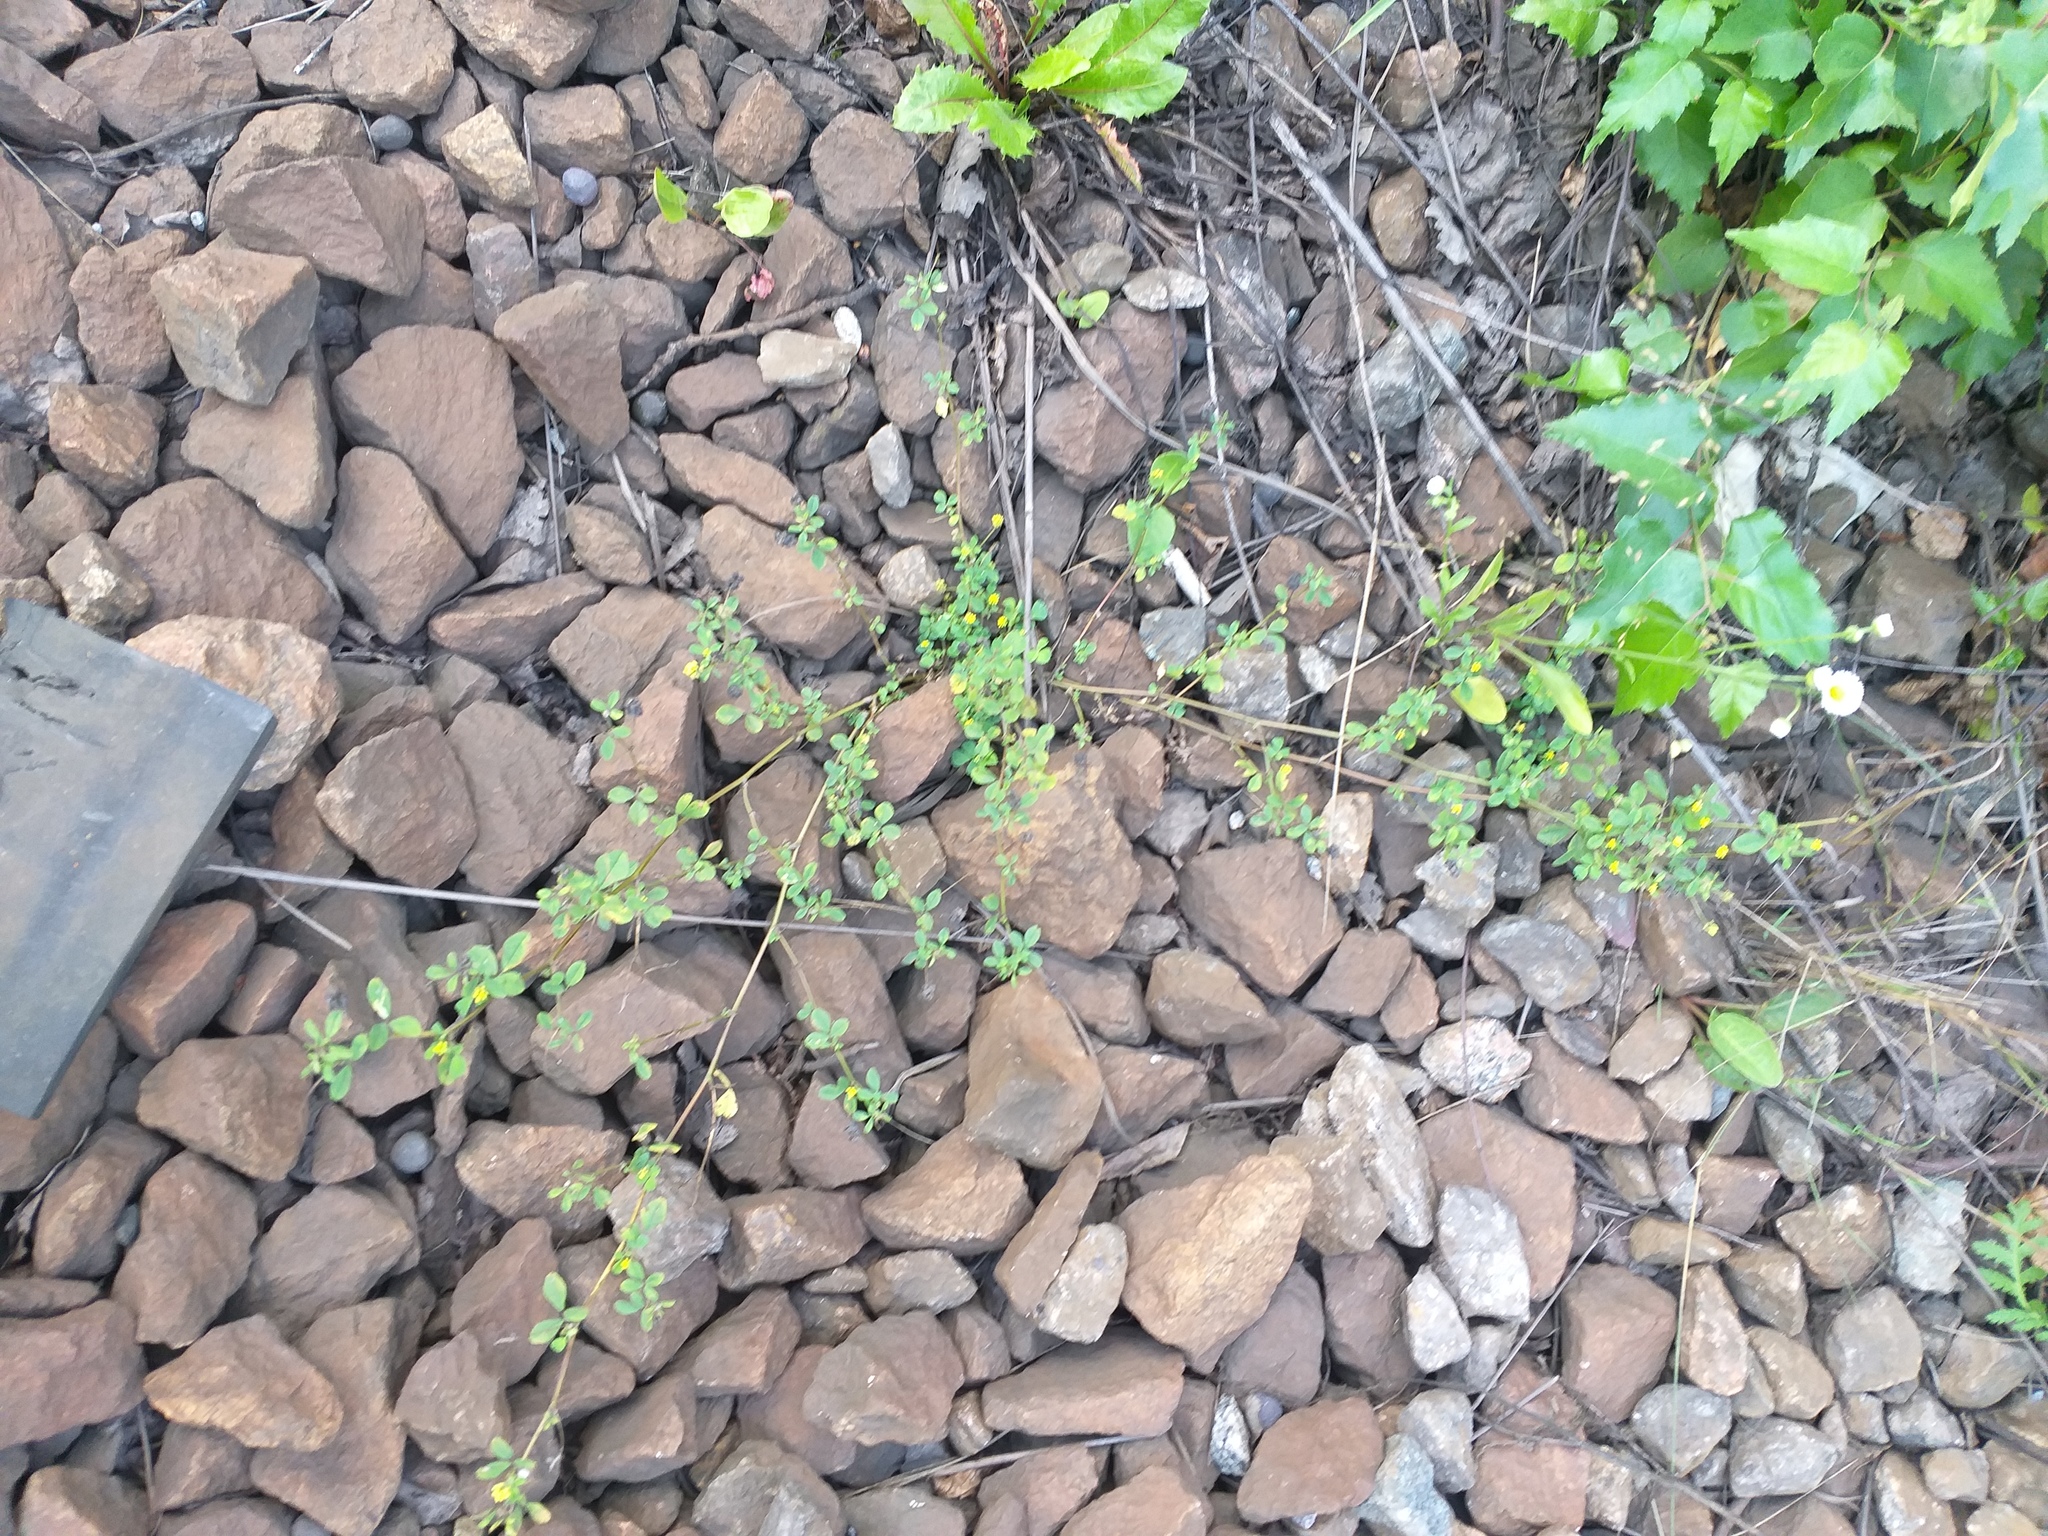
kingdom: Plantae
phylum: Tracheophyta
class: Magnoliopsida
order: Fabales
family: Fabaceae
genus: Medicago
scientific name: Medicago lupulina
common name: Black medick
